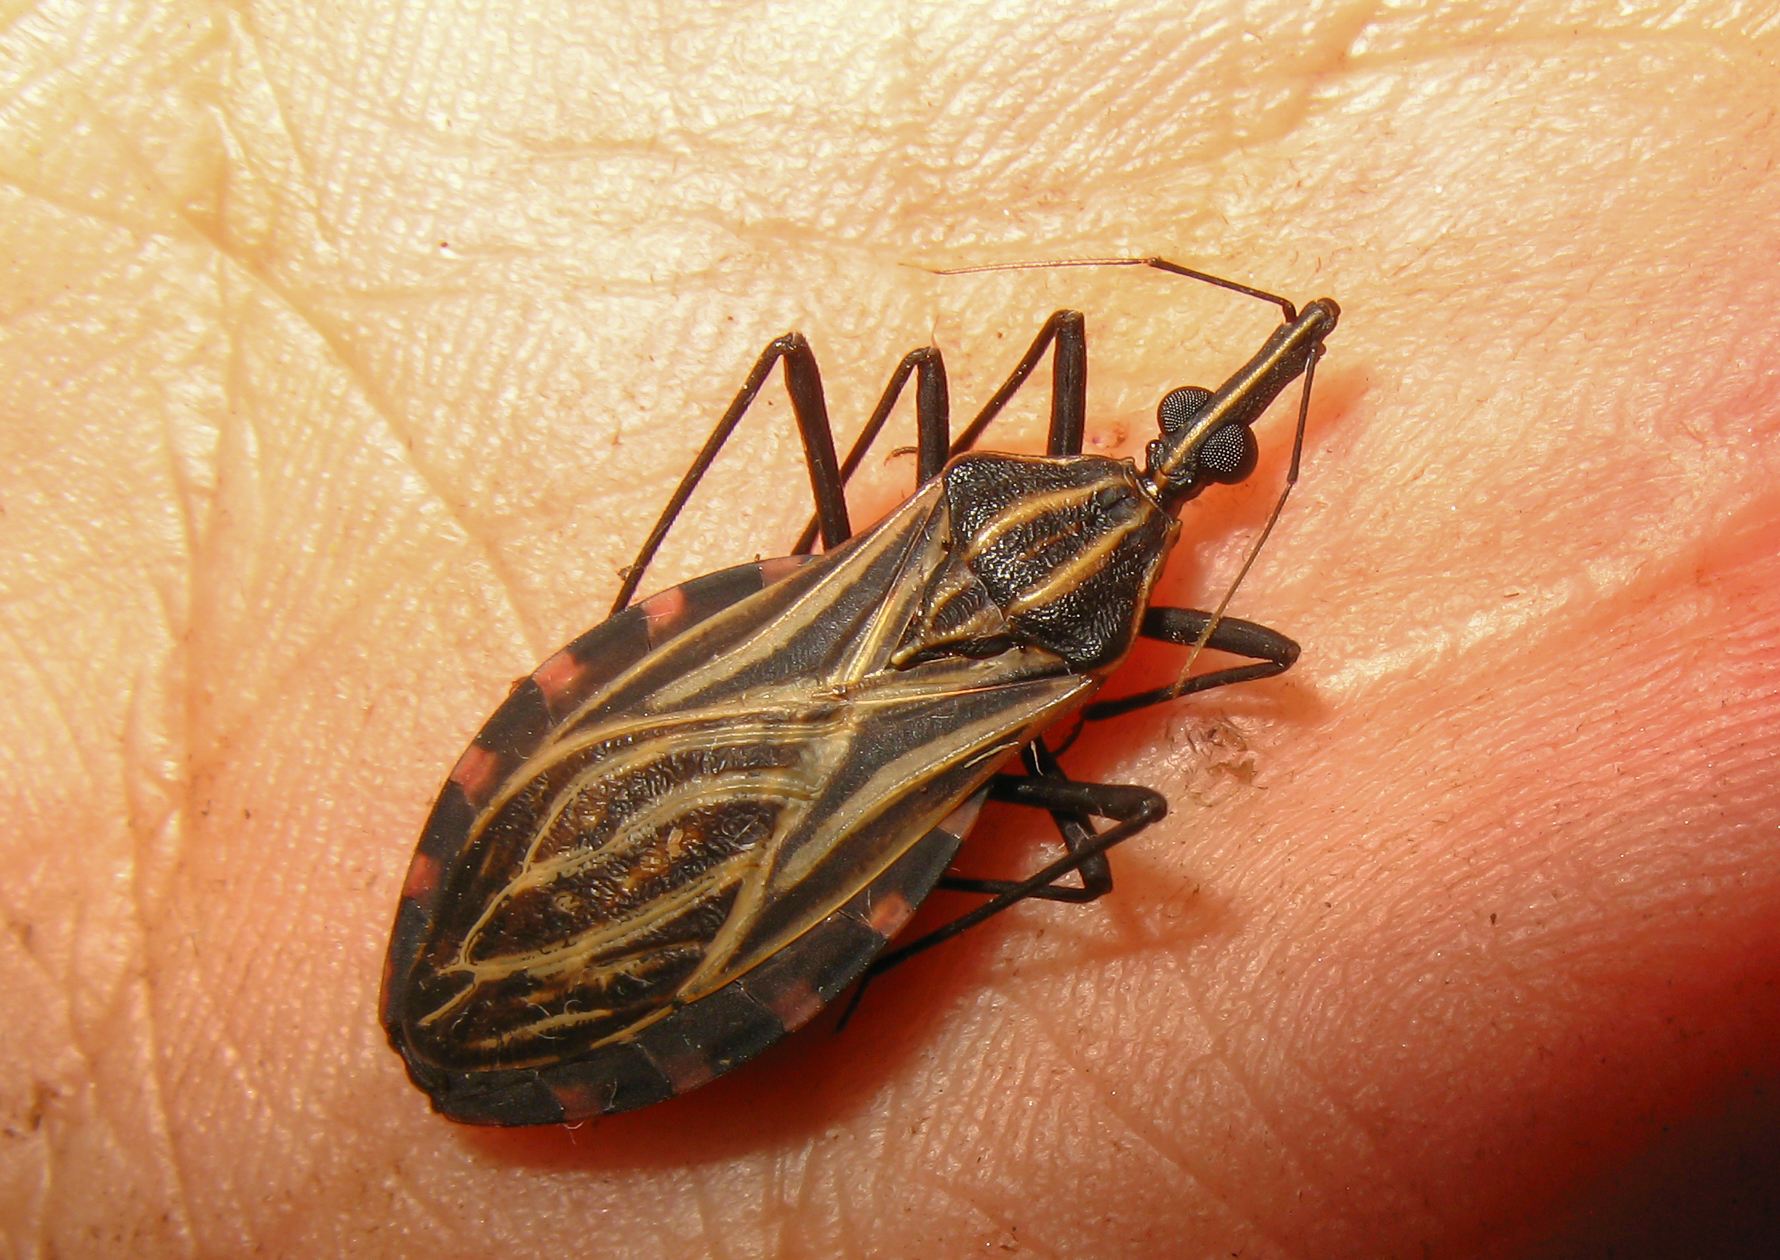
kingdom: Animalia
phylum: Arthropoda
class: Insecta
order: Hemiptera
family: Reduviidae
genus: Rhodnius
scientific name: Rhodnius brethesi
